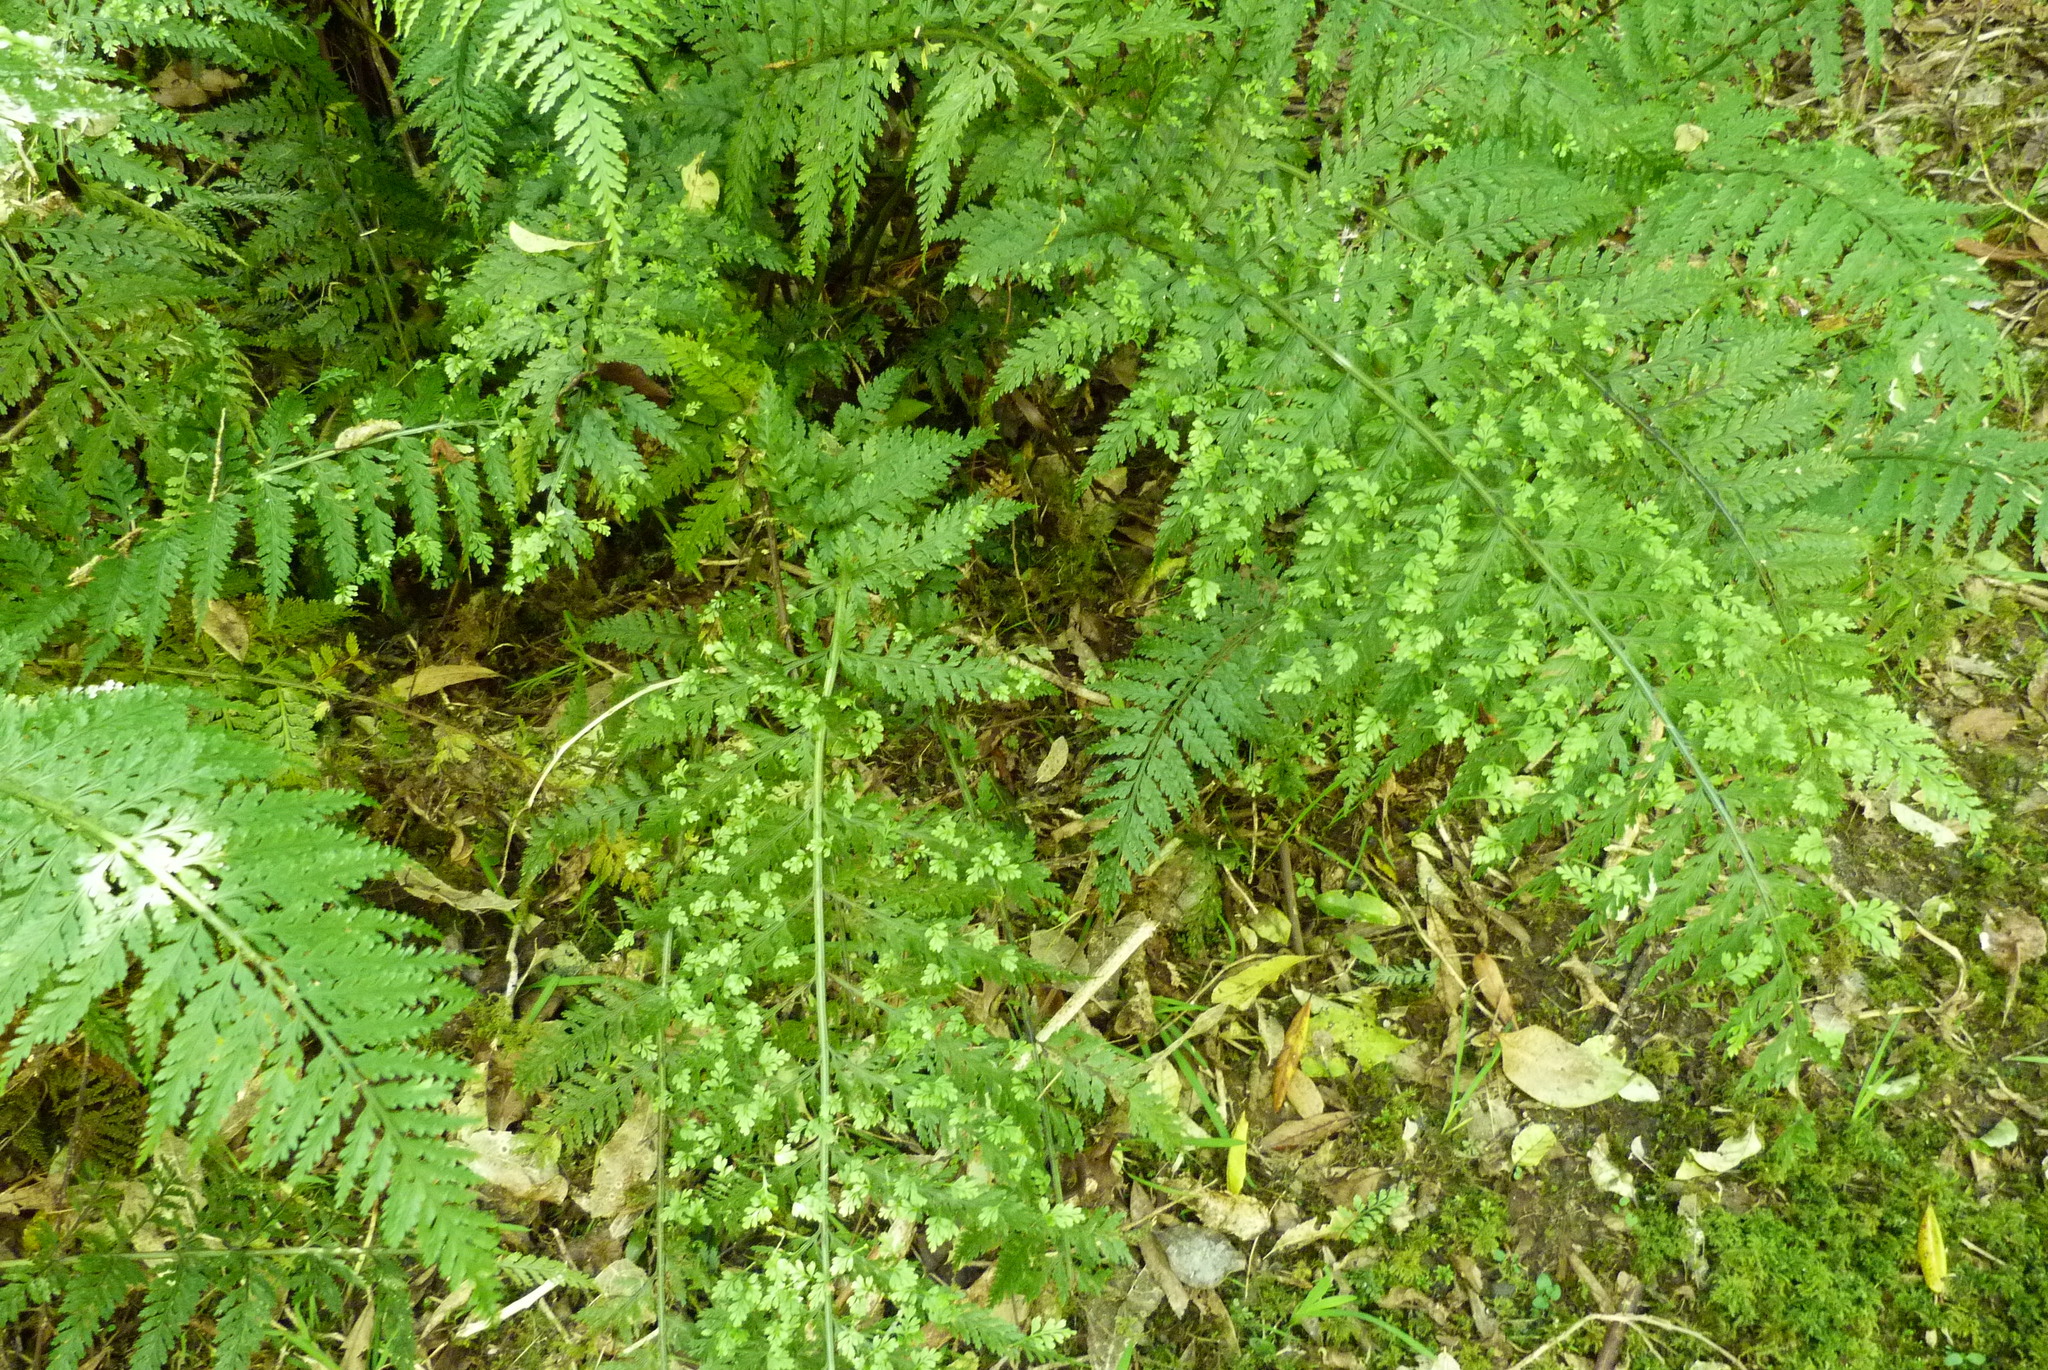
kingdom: Plantae
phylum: Tracheophyta
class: Polypodiopsida
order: Polypodiales
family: Aspleniaceae
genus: Asplenium
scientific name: Asplenium bulbiferum
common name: Mother fern
